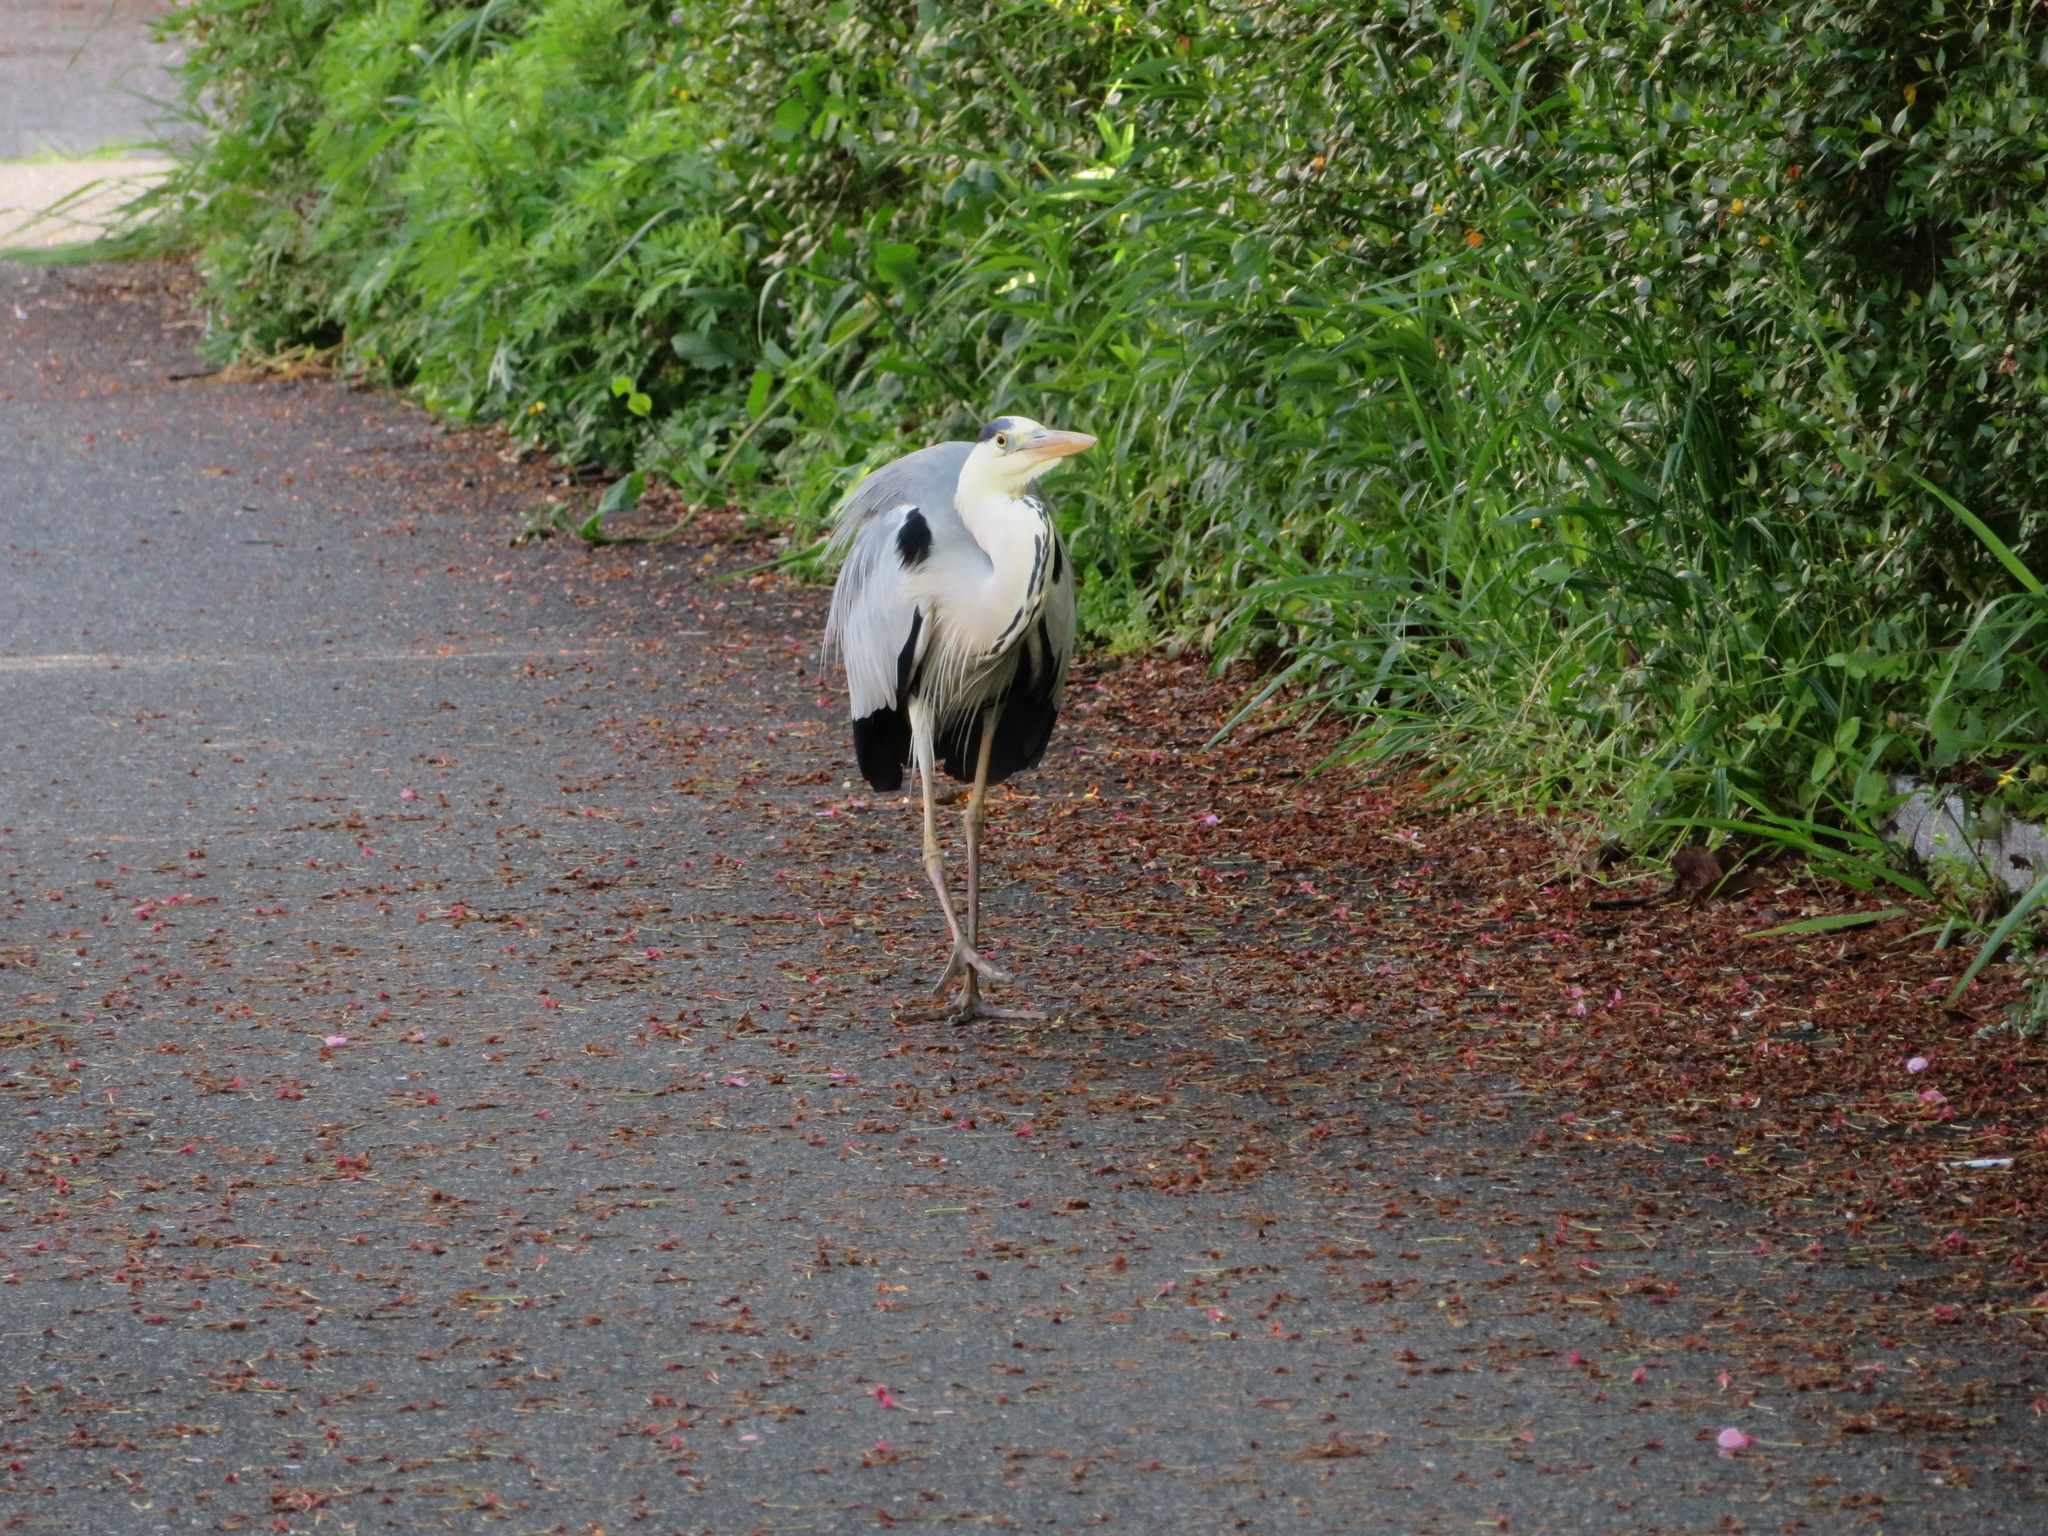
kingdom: Animalia
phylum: Chordata
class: Aves
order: Pelecaniformes
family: Ardeidae
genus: Ardea
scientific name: Ardea cinerea
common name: Grey heron
